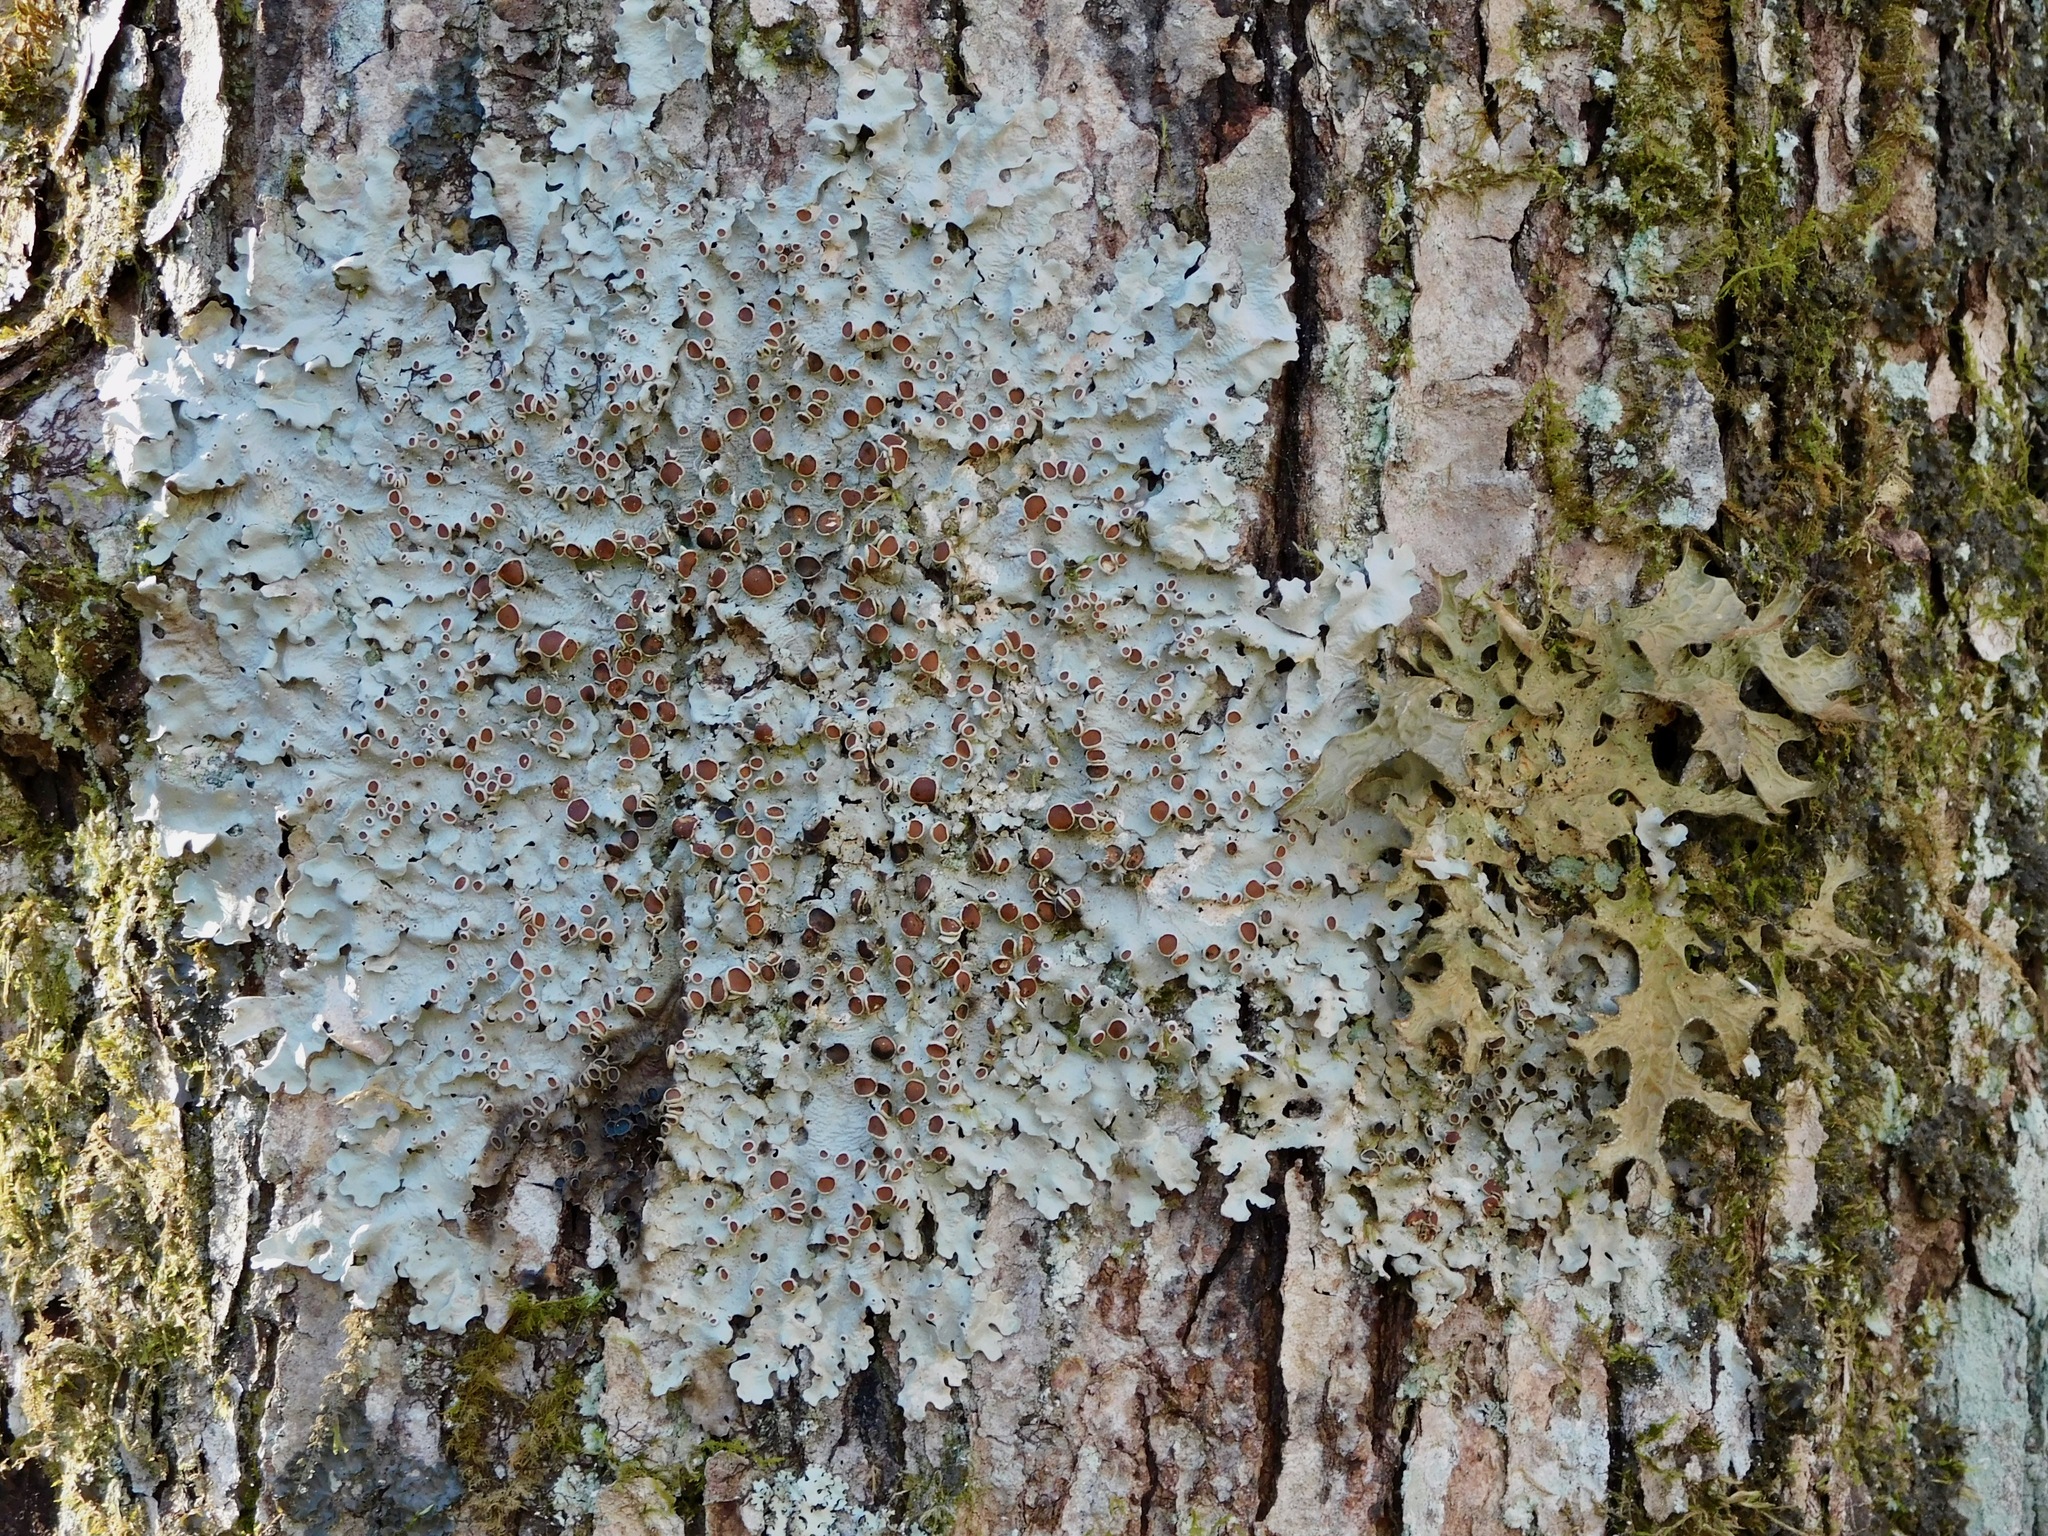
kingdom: Fungi
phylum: Ascomycota
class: Lecanoromycetes
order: Peltigerales
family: Lobariaceae
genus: Ricasolia
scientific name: Ricasolia quercizans
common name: Smooth lungwort
